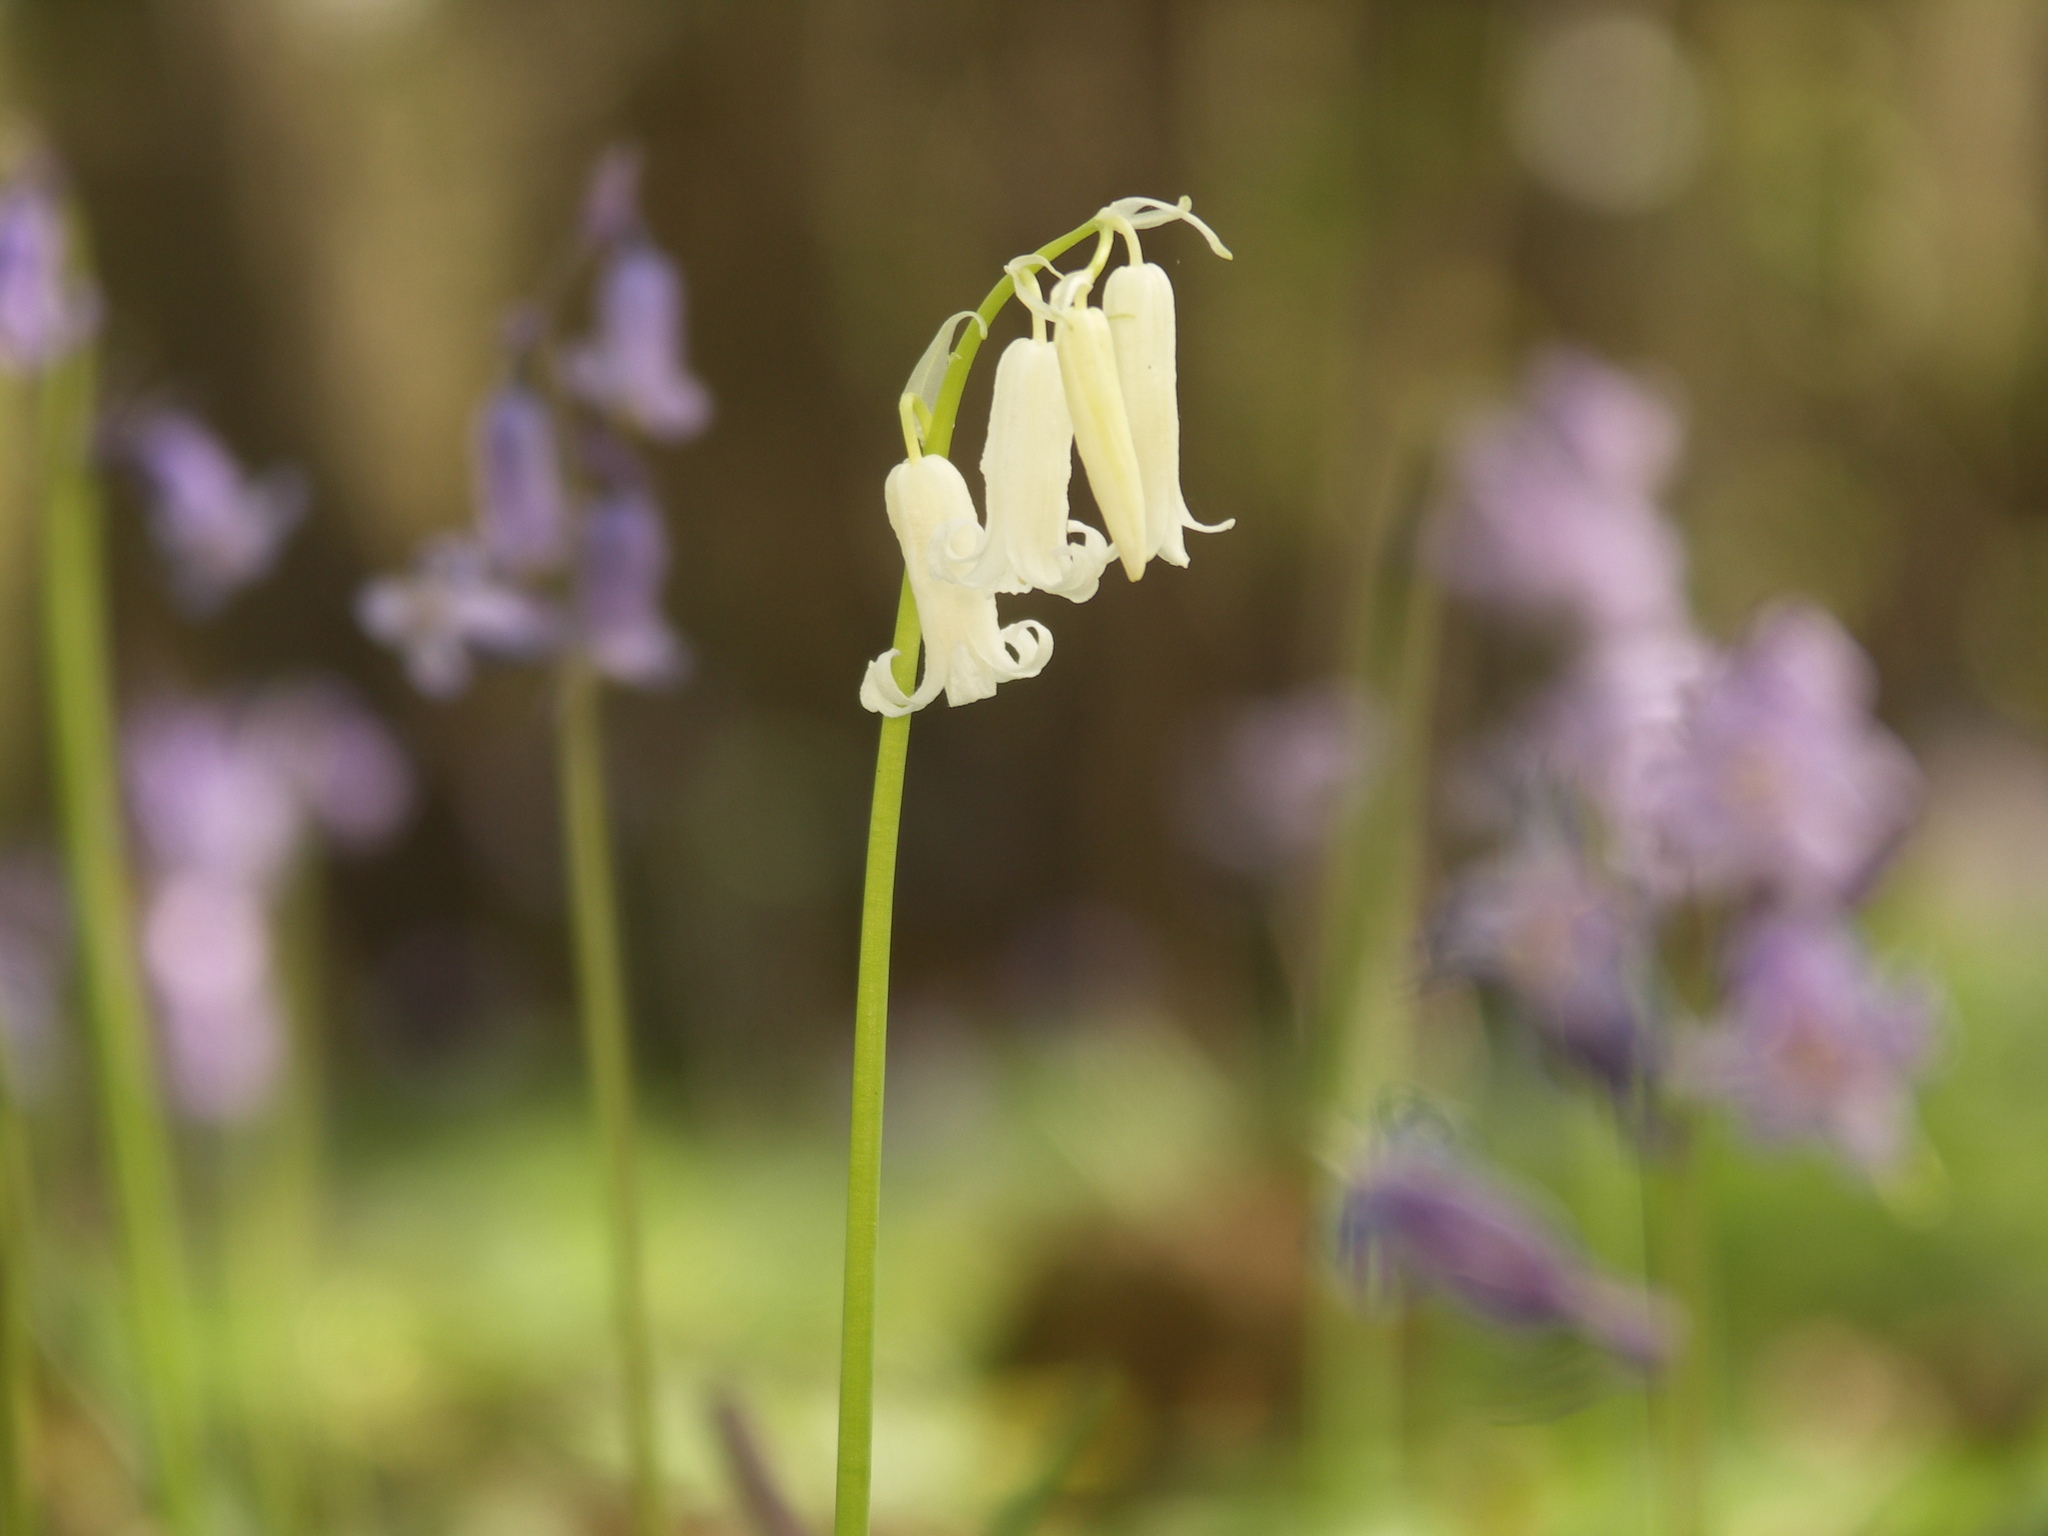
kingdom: Plantae
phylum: Tracheophyta
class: Liliopsida
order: Asparagales
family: Asparagaceae
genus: Hyacinthoides
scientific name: Hyacinthoides non-scripta
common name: Bluebell
